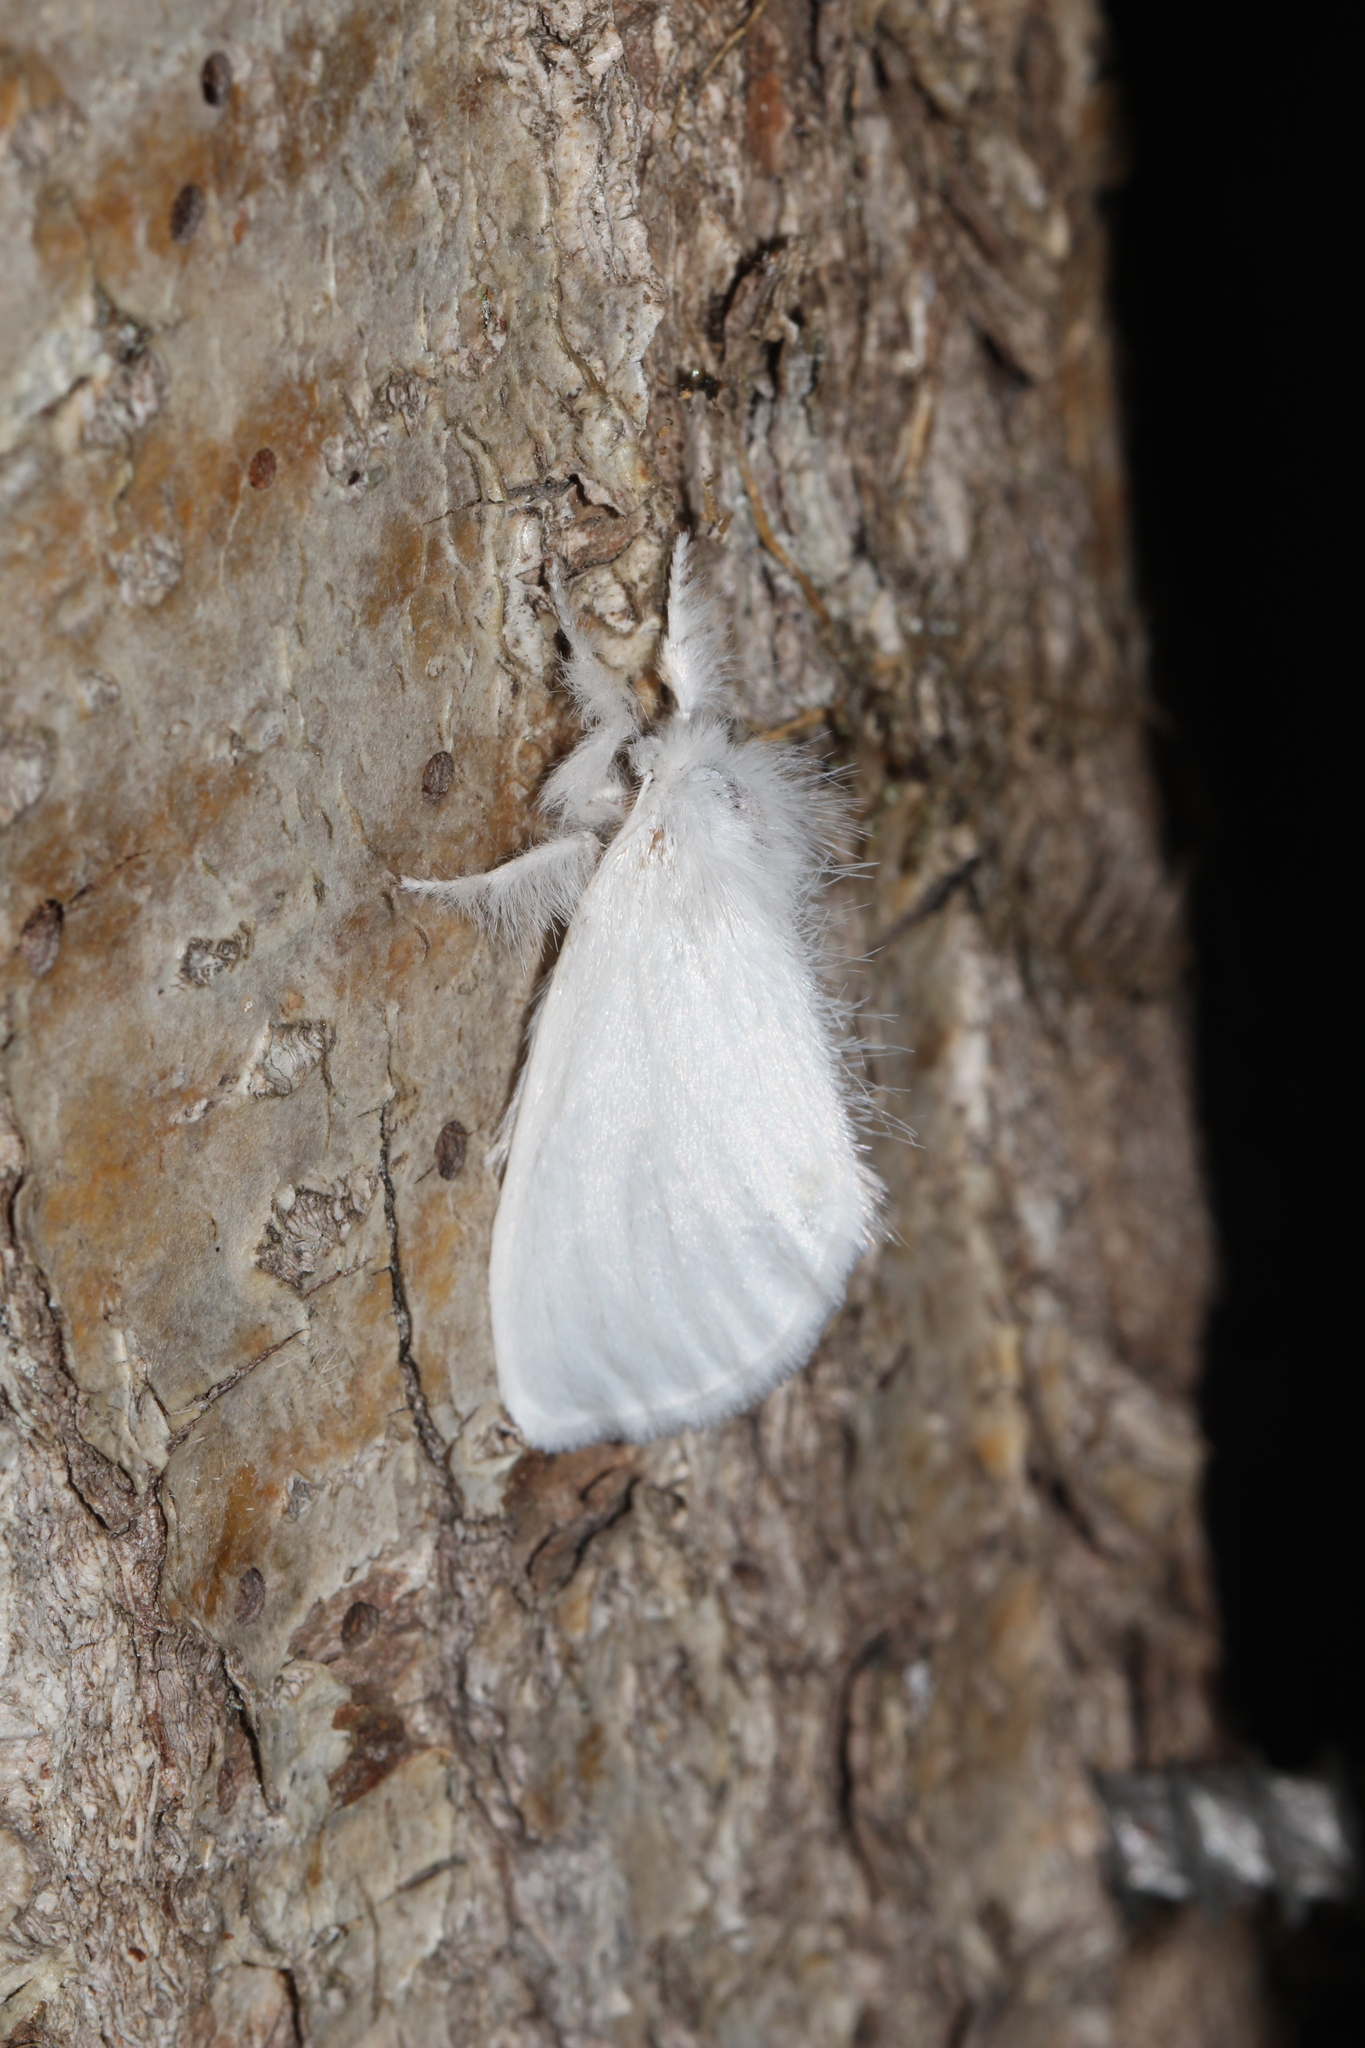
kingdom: Animalia
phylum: Arthropoda
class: Insecta
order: Lepidoptera
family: Erebidae
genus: Sphrageidus
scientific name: Sphrageidus similis
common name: Yellow-tail
